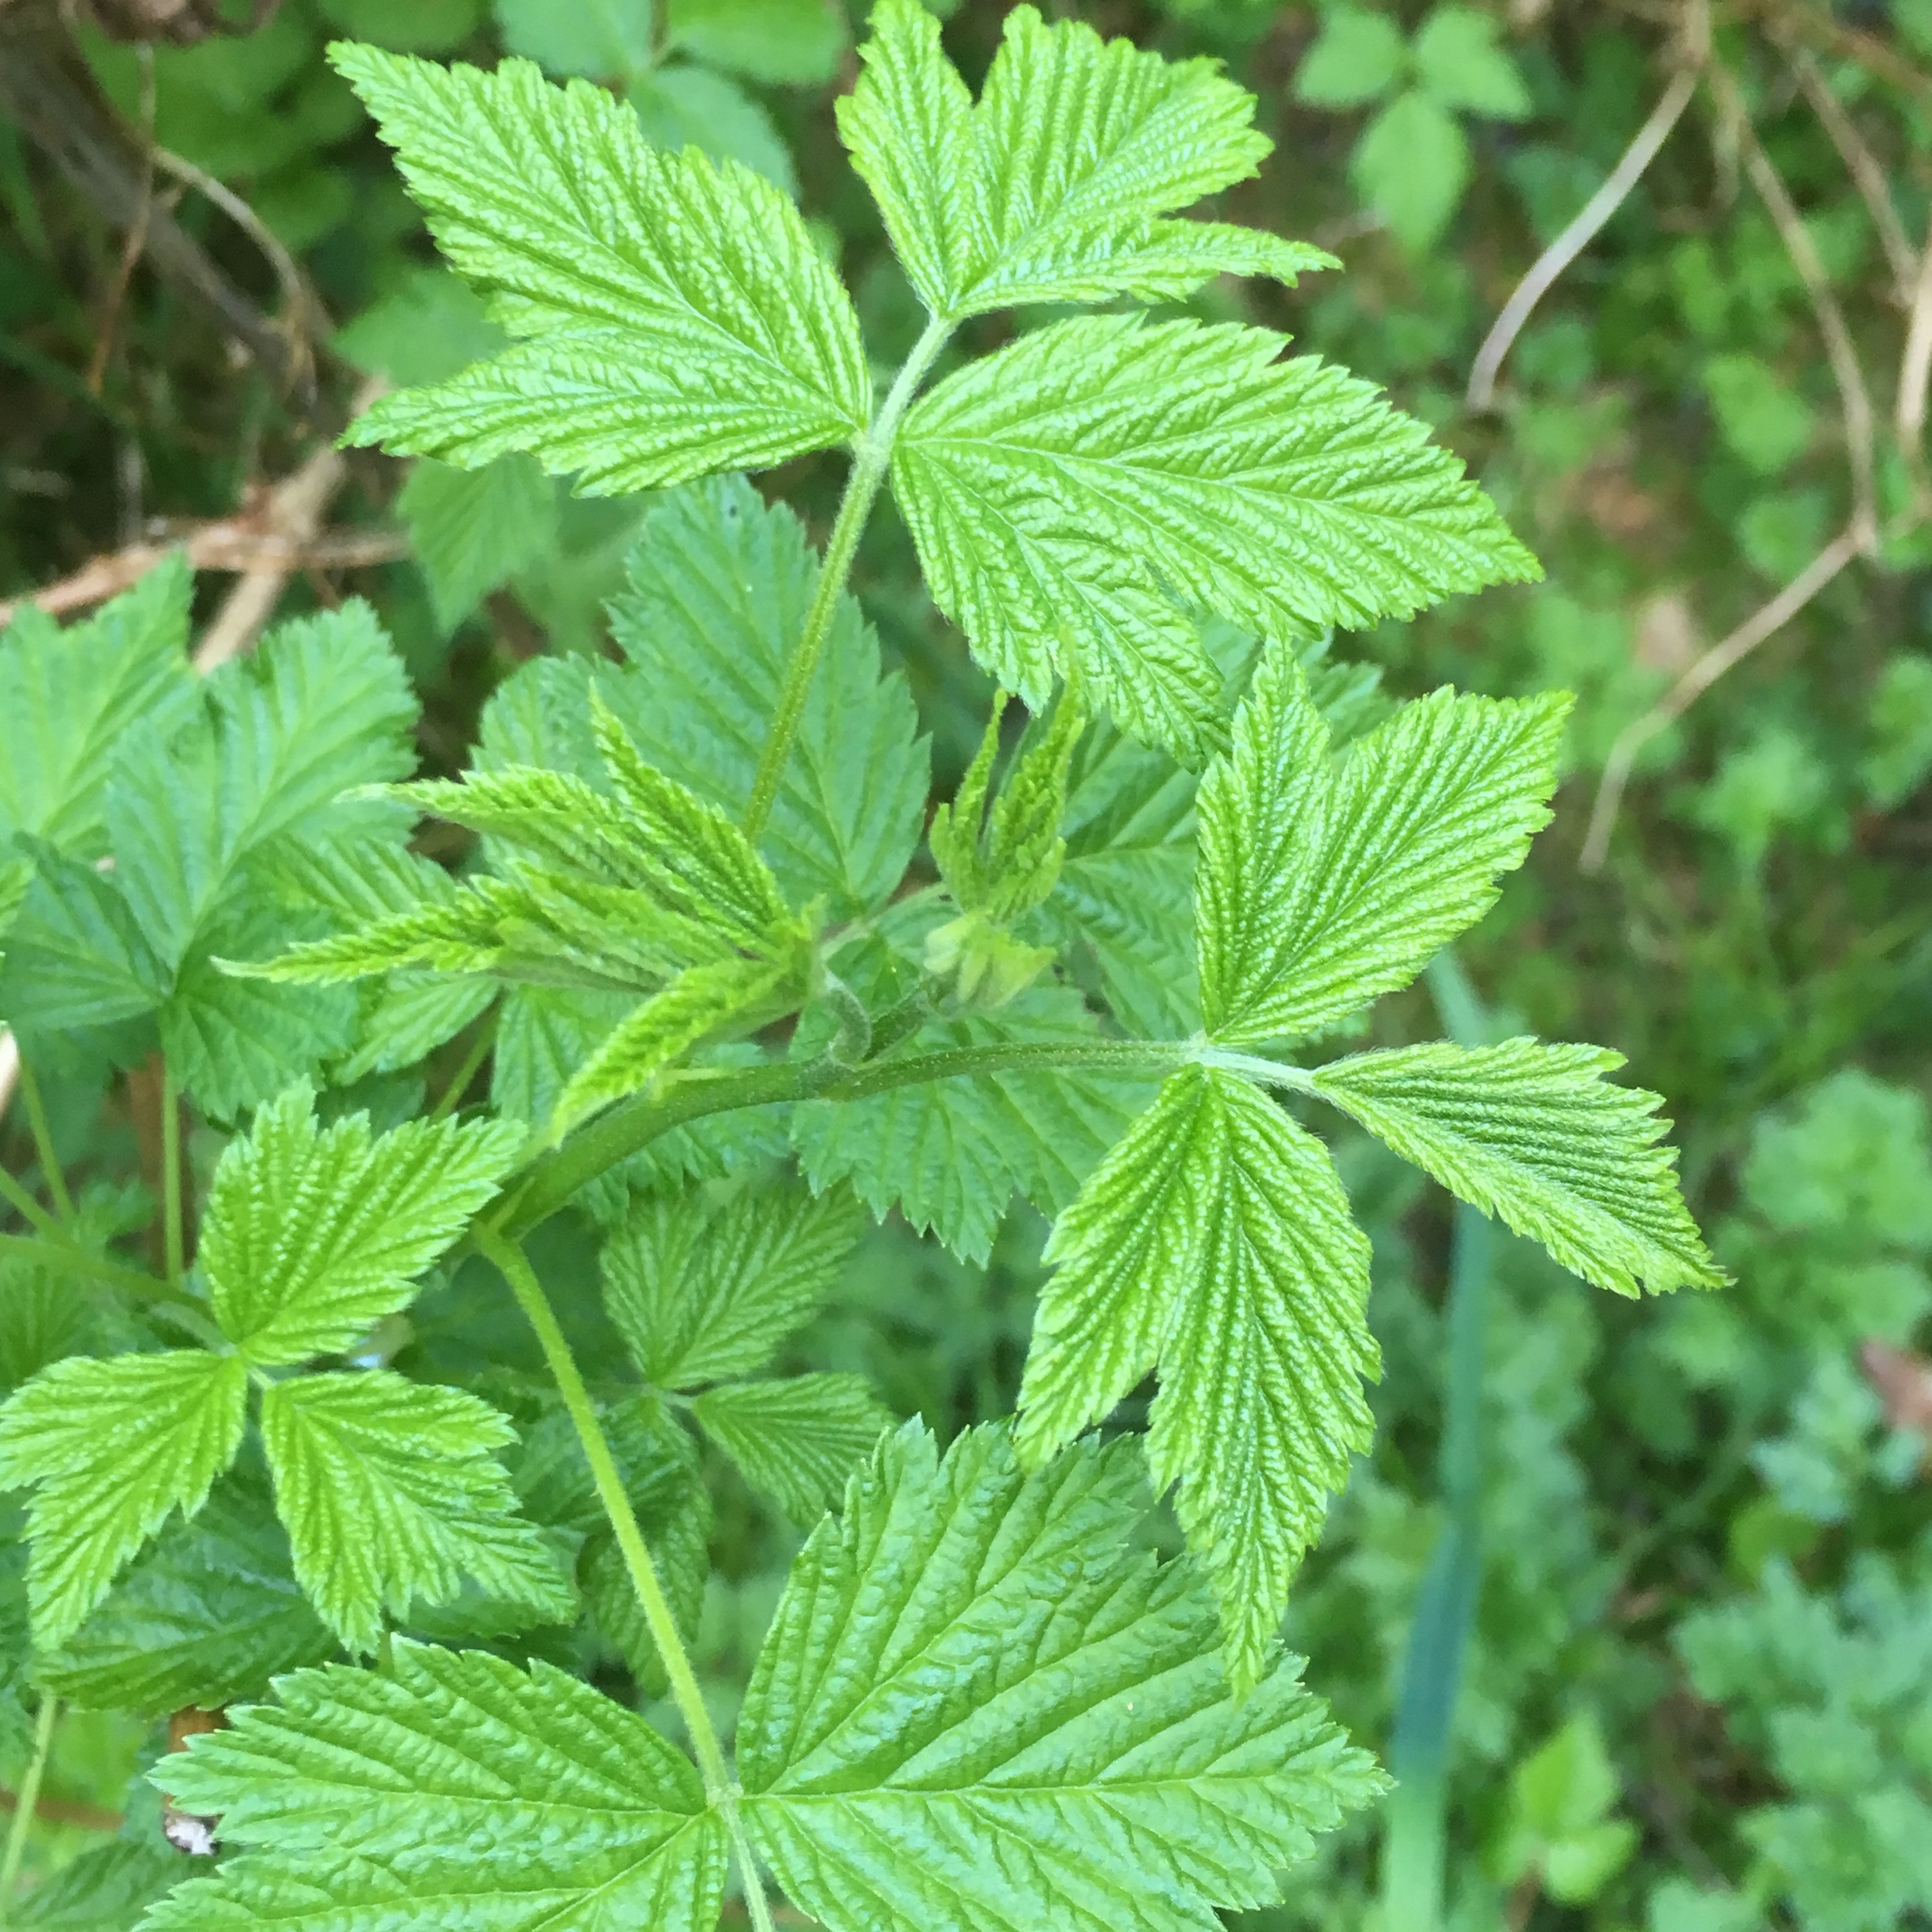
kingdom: Plantae
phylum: Tracheophyta
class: Magnoliopsida
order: Rosales
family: Rosaceae
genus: Rubus
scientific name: Rubus spectabilis
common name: Salmonberry
